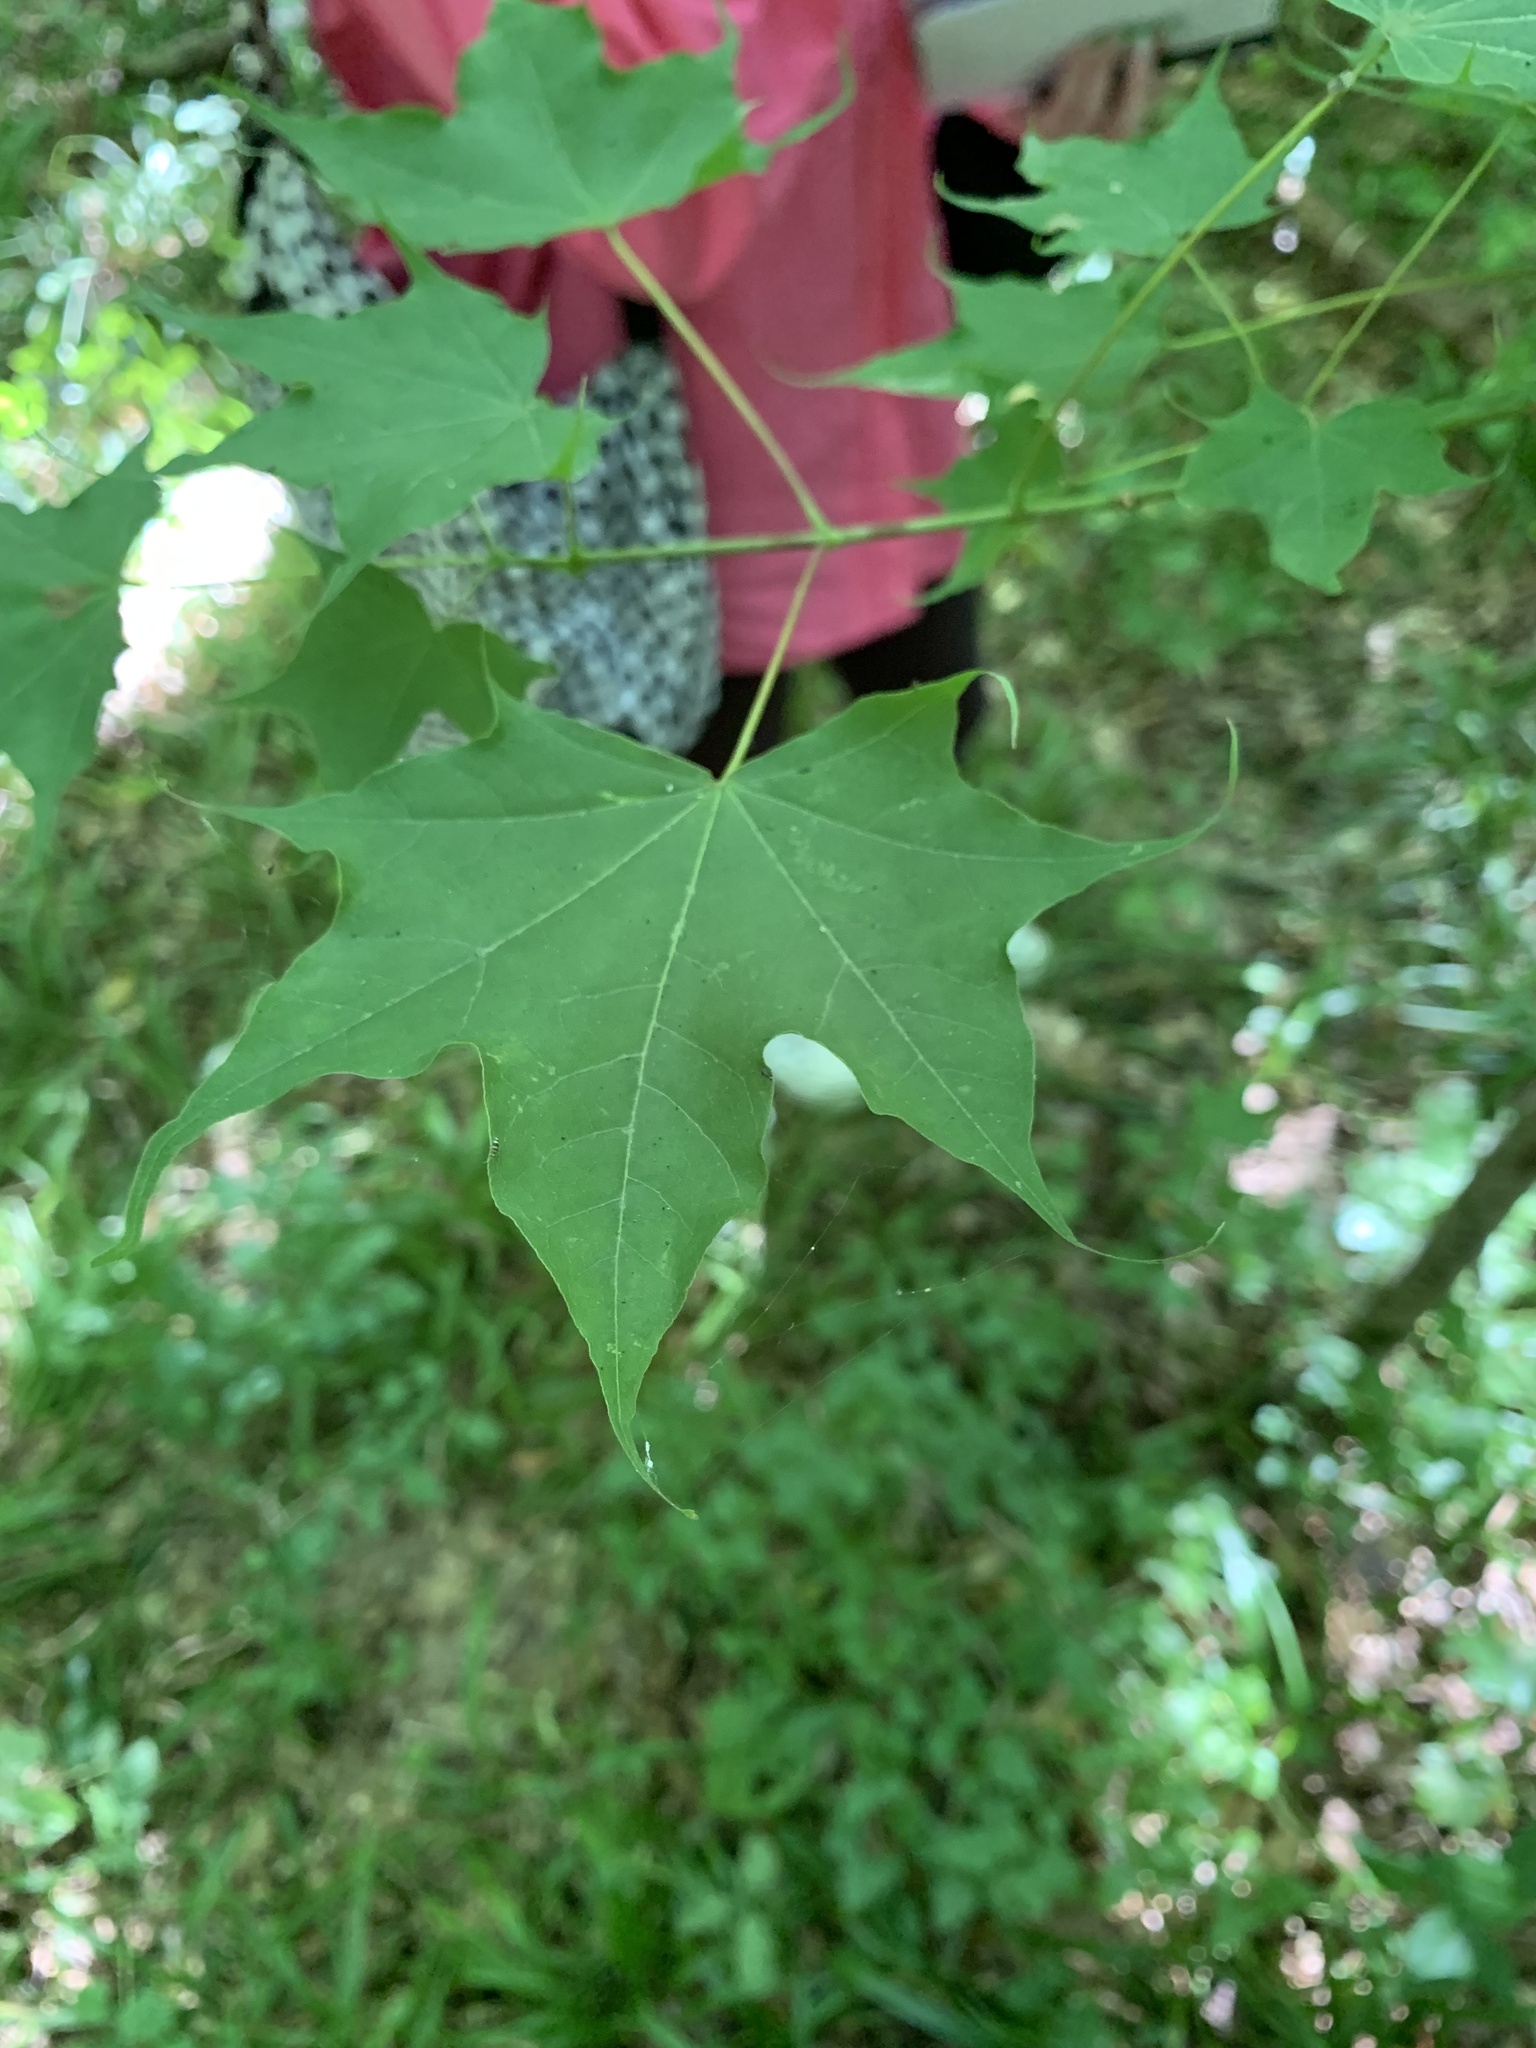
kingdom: Plantae
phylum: Tracheophyta
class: Magnoliopsida
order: Sapindales
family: Sapindaceae
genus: Acer
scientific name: Acer cappadocicum
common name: Cappadocian maple
